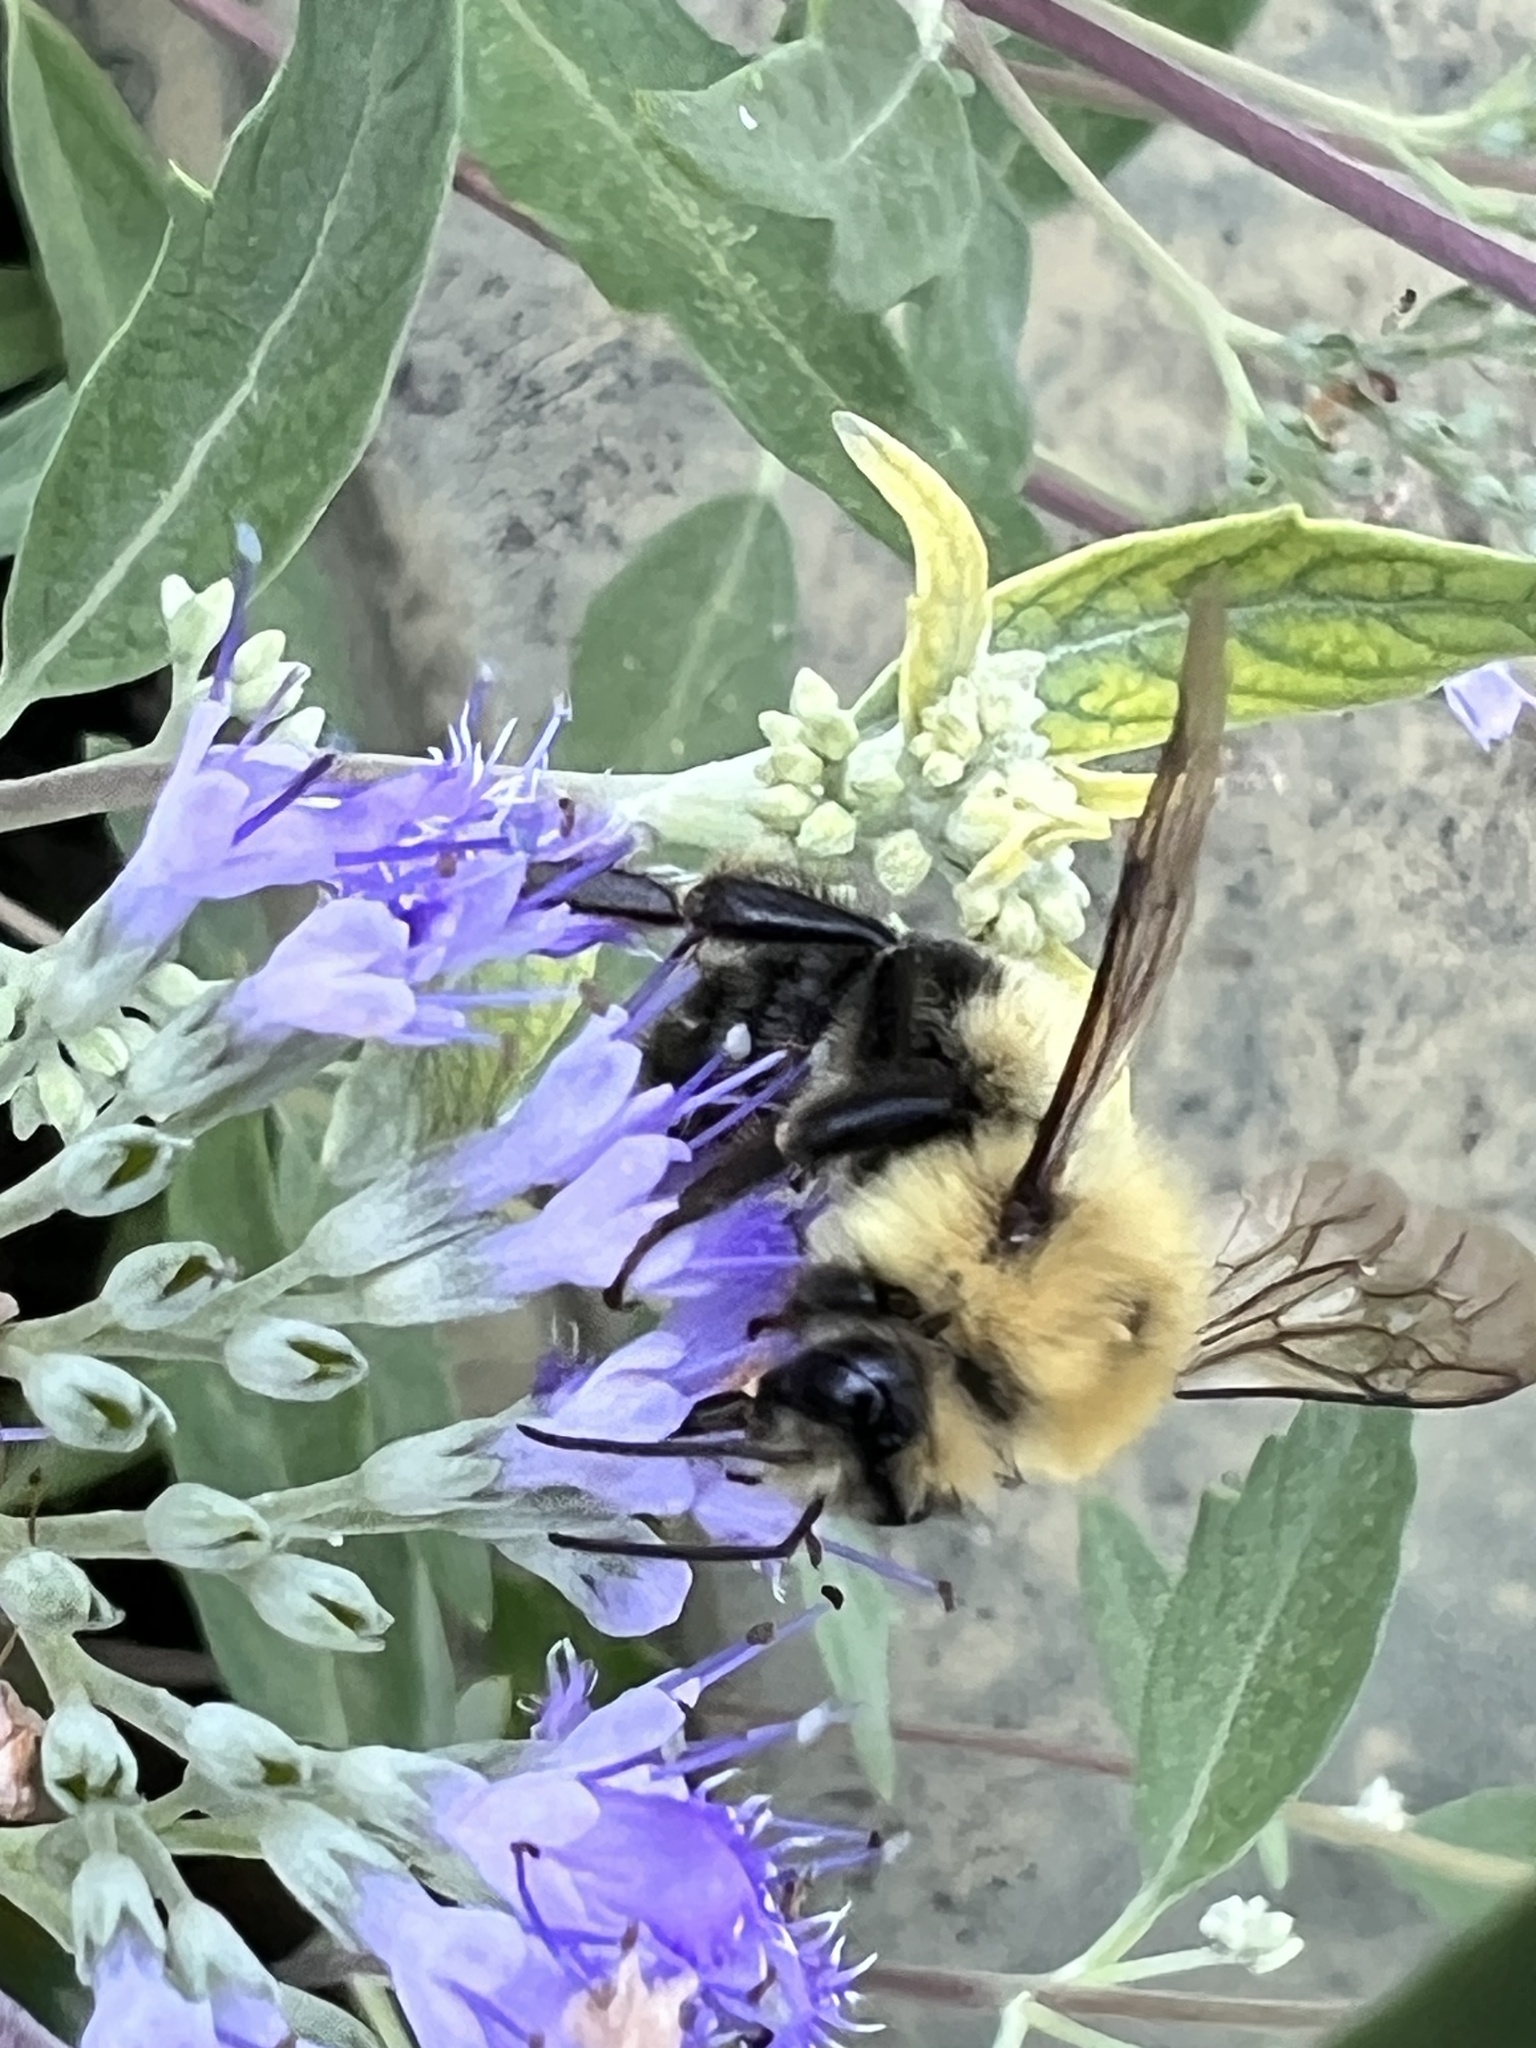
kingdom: Animalia
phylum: Arthropoda
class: Insecta
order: Hymenoptera
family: Apidae
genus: Bombus
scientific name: Bombus bimaculatus
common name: Two-spotted bumble bee
